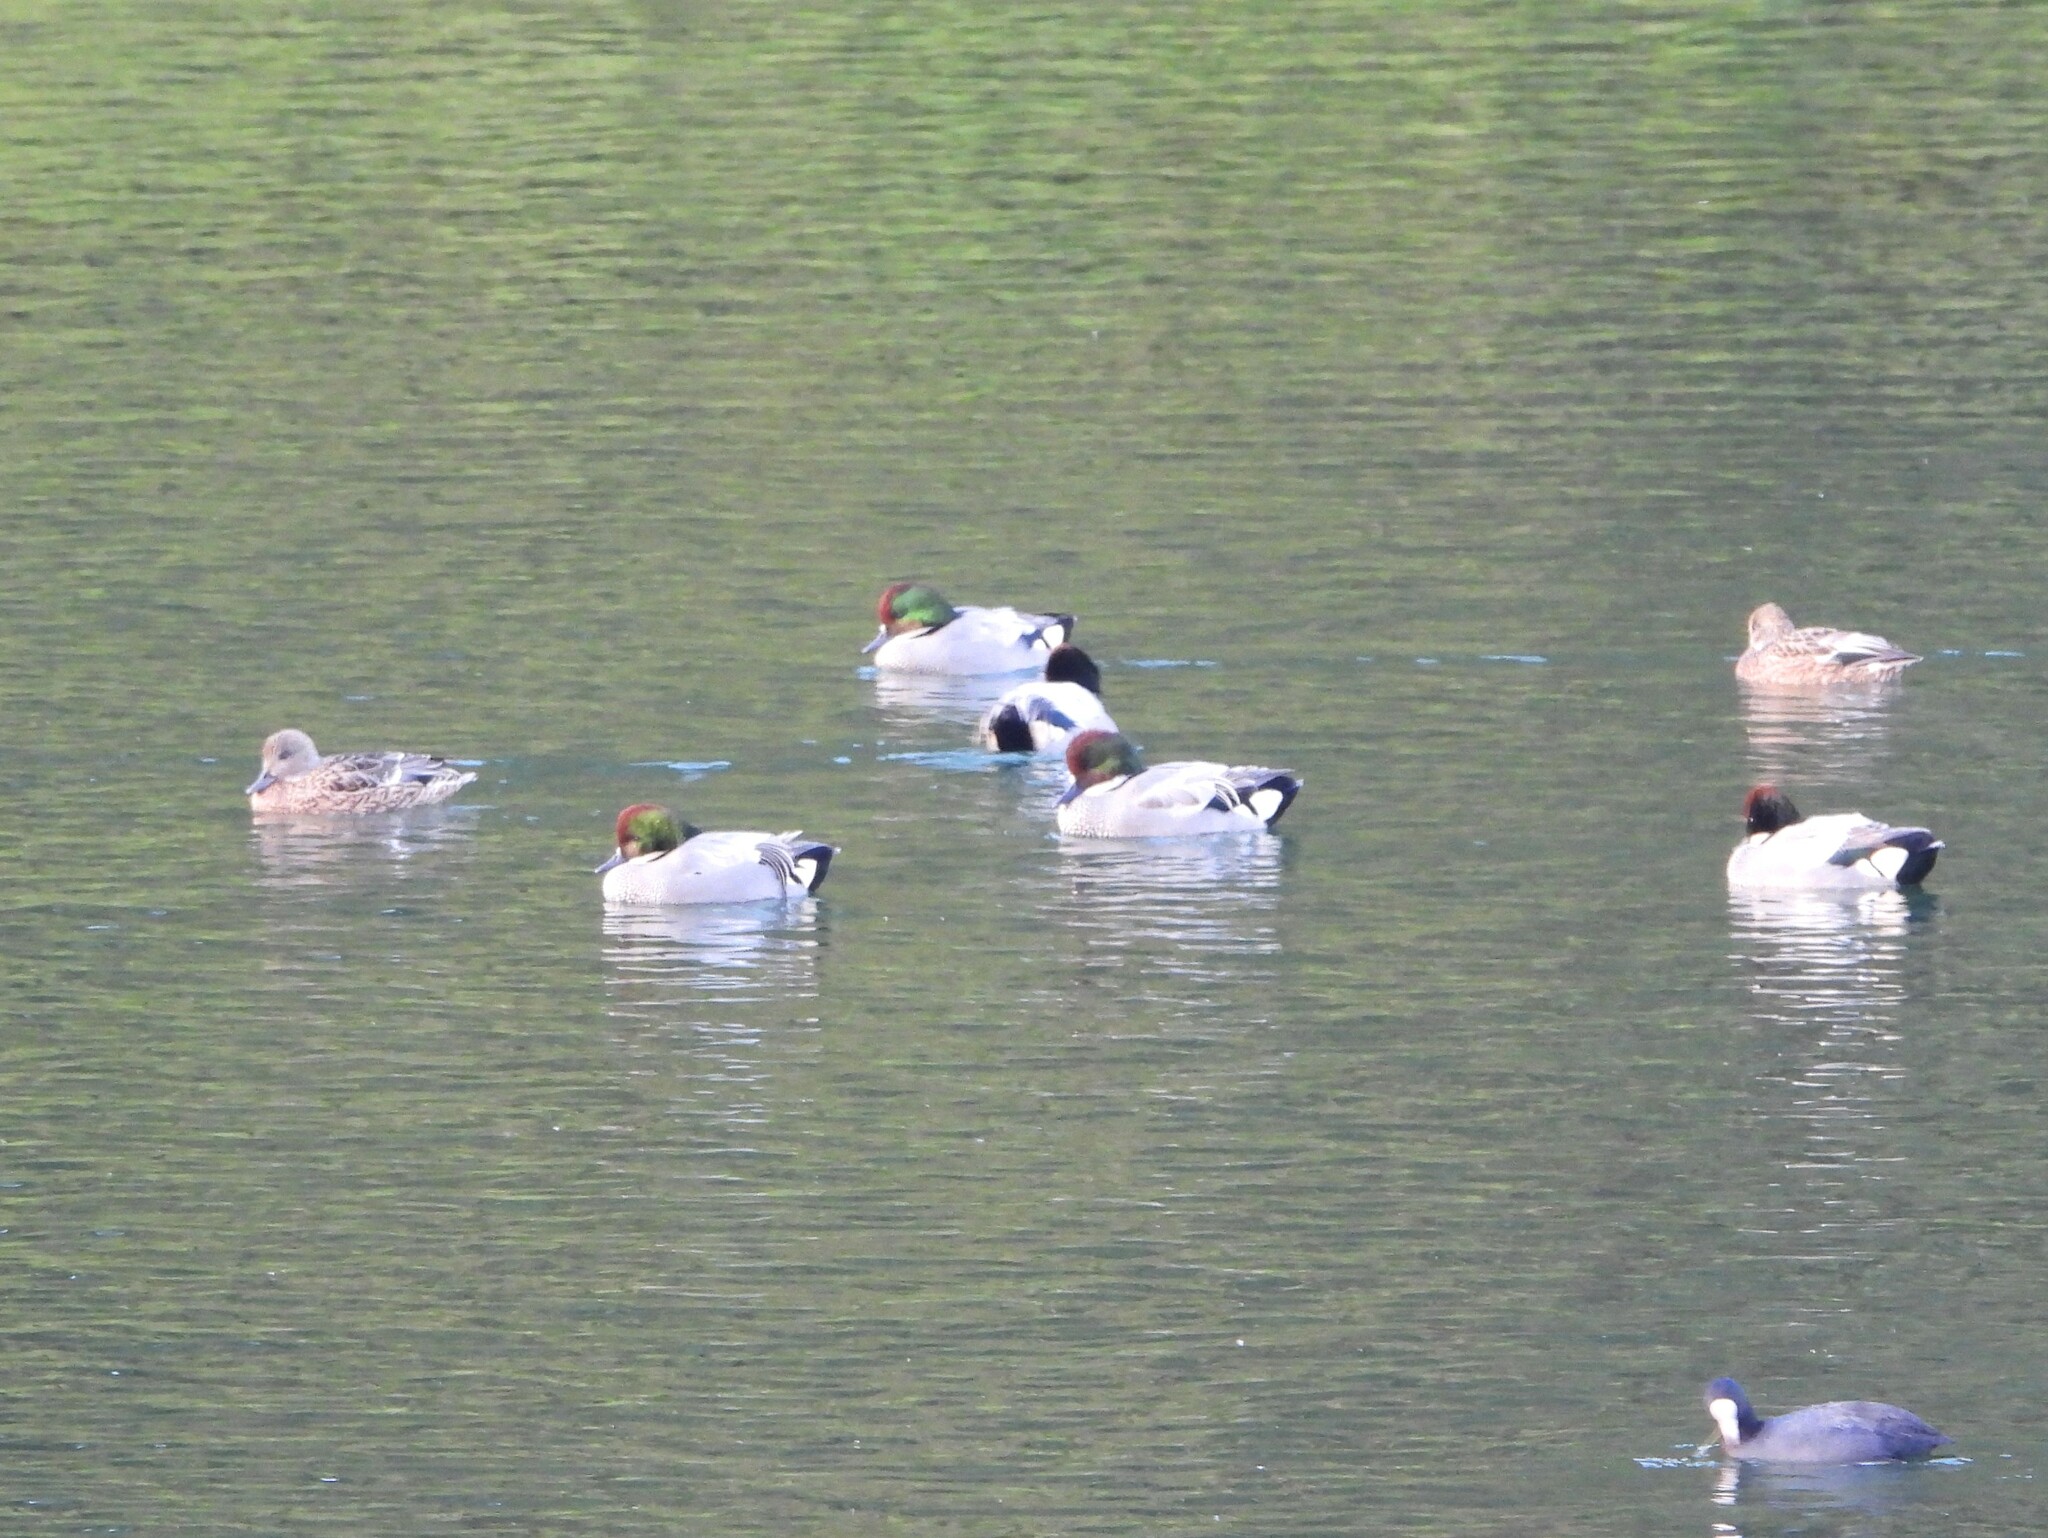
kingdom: Animalia
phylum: Chordata
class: Aves
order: Anseriformes
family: Anatidae
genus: Mareca
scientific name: Mareca falcata
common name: Falcated duck
